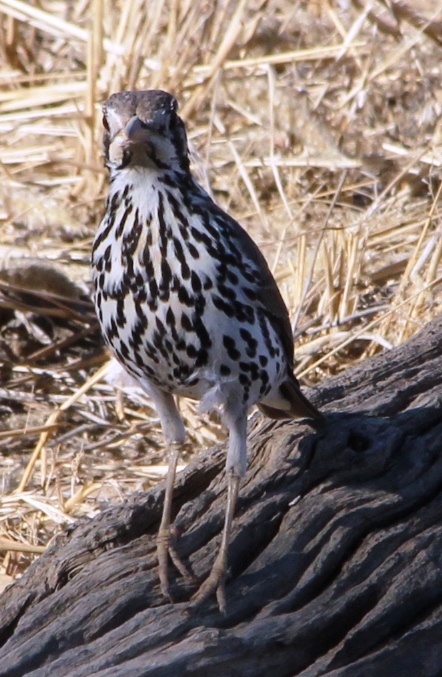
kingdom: Animalia
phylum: Chordata
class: Aves
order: Passeriformes
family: Turdidae
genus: Psophocichla
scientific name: Psophocichla litsitsirupa
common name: Groundscraper thrush
